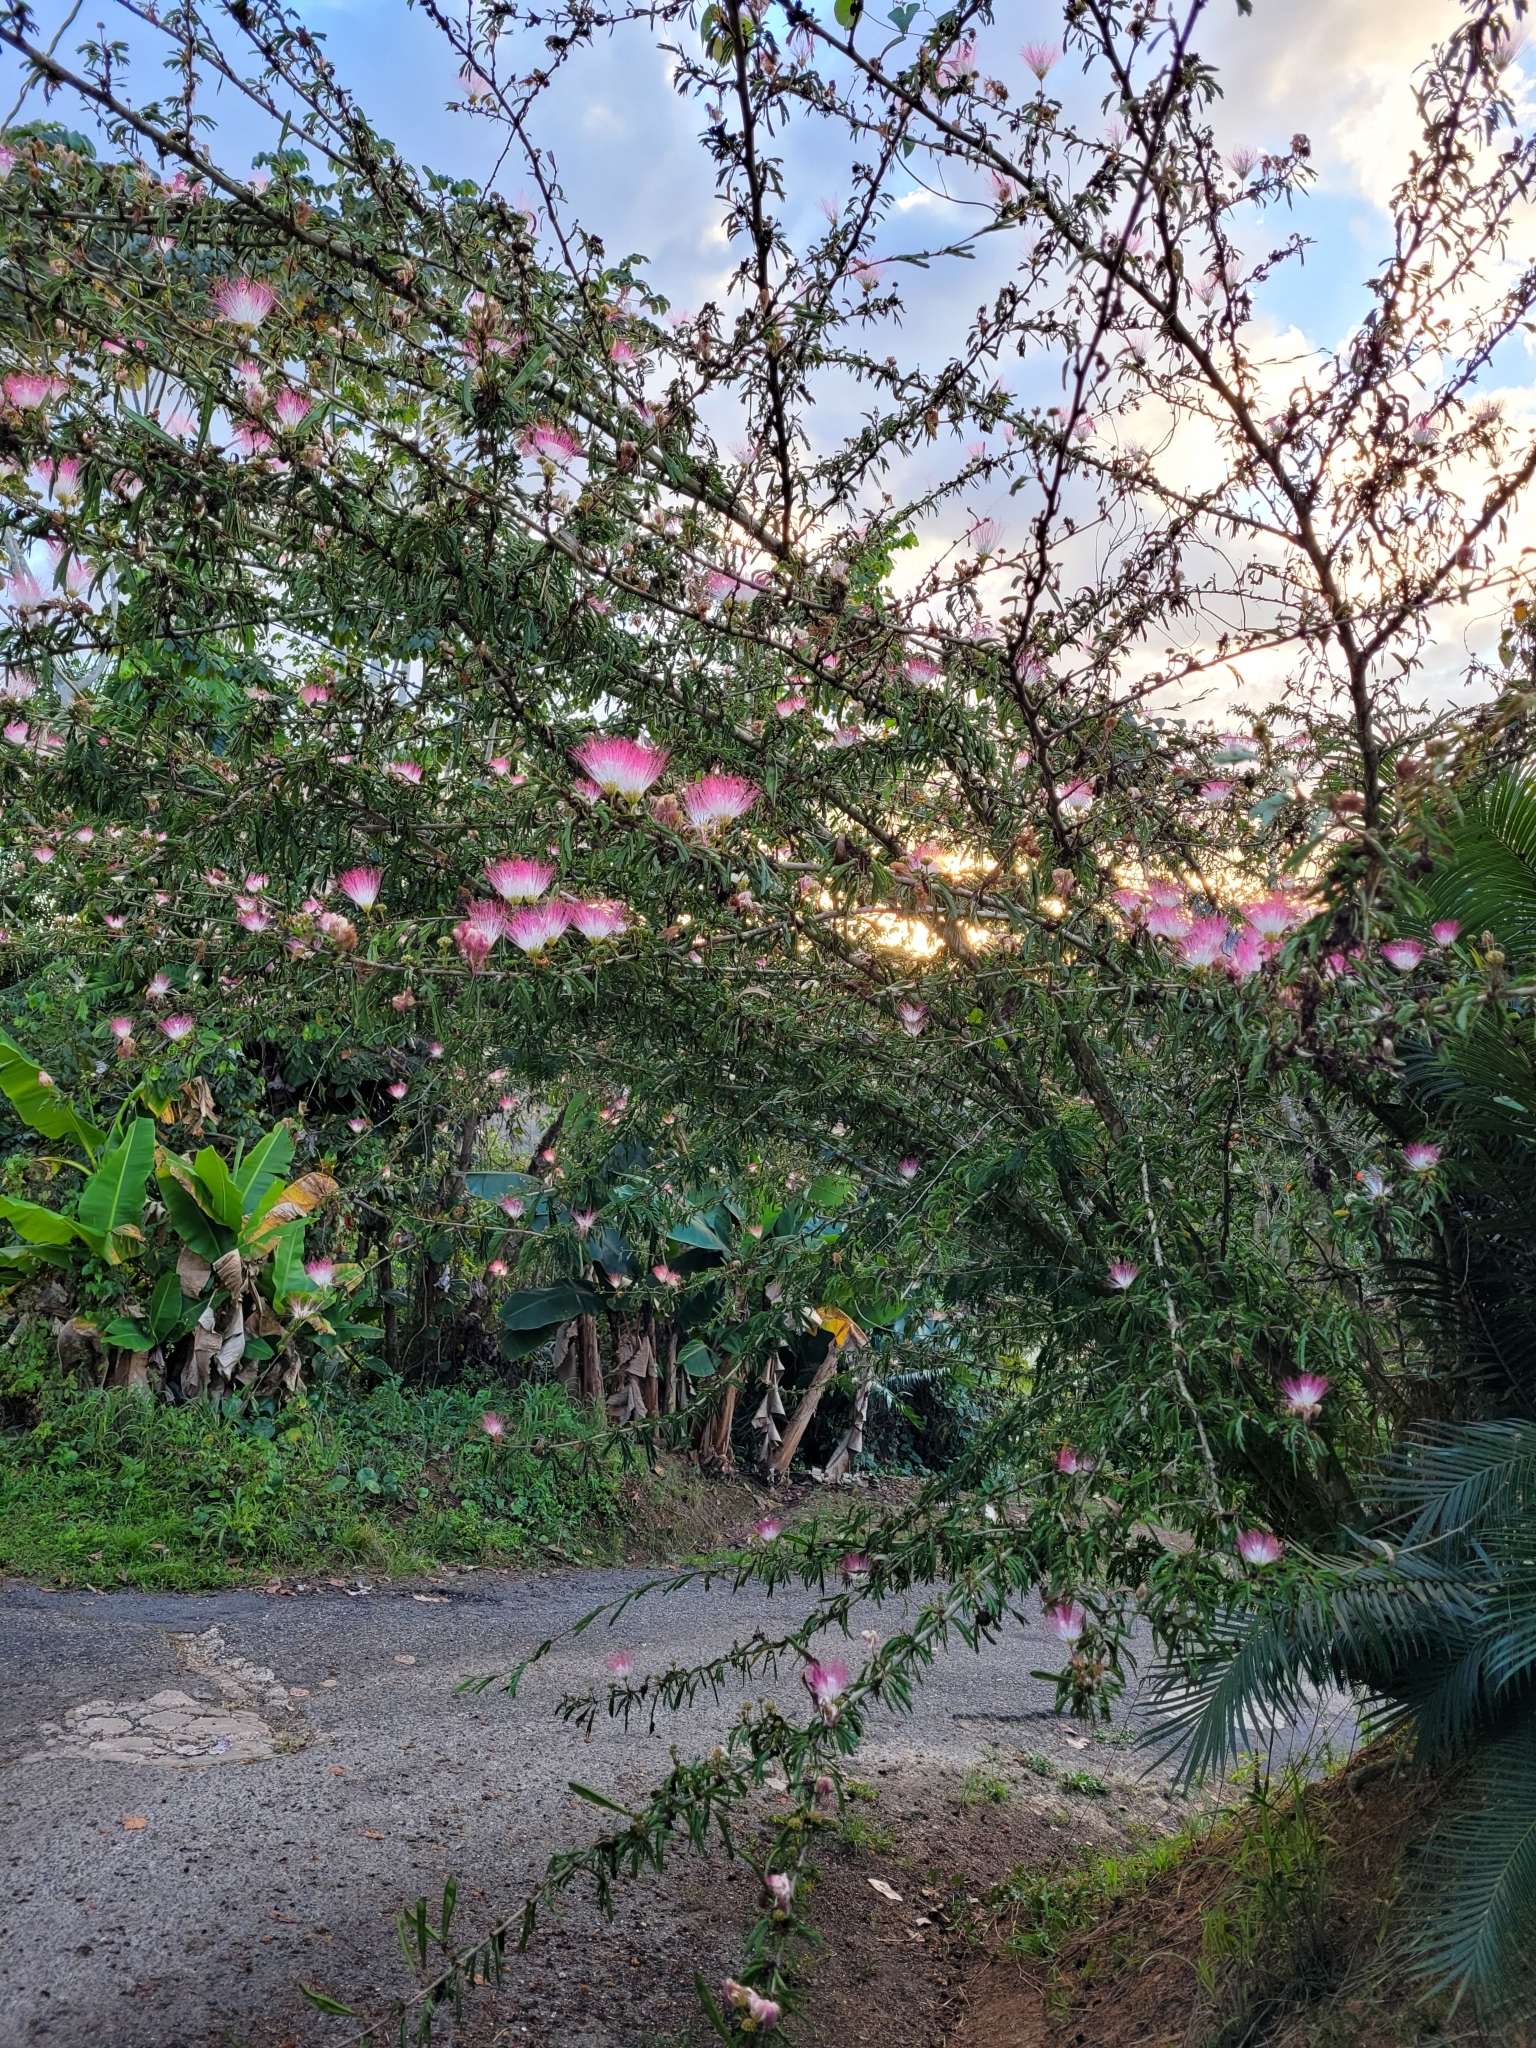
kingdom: Plantae
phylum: Tracheophyta
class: Magnoliopsida
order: Fabales
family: Fabaceae
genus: Calliandra
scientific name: Calliandra surinamensis
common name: Pink powder puff
